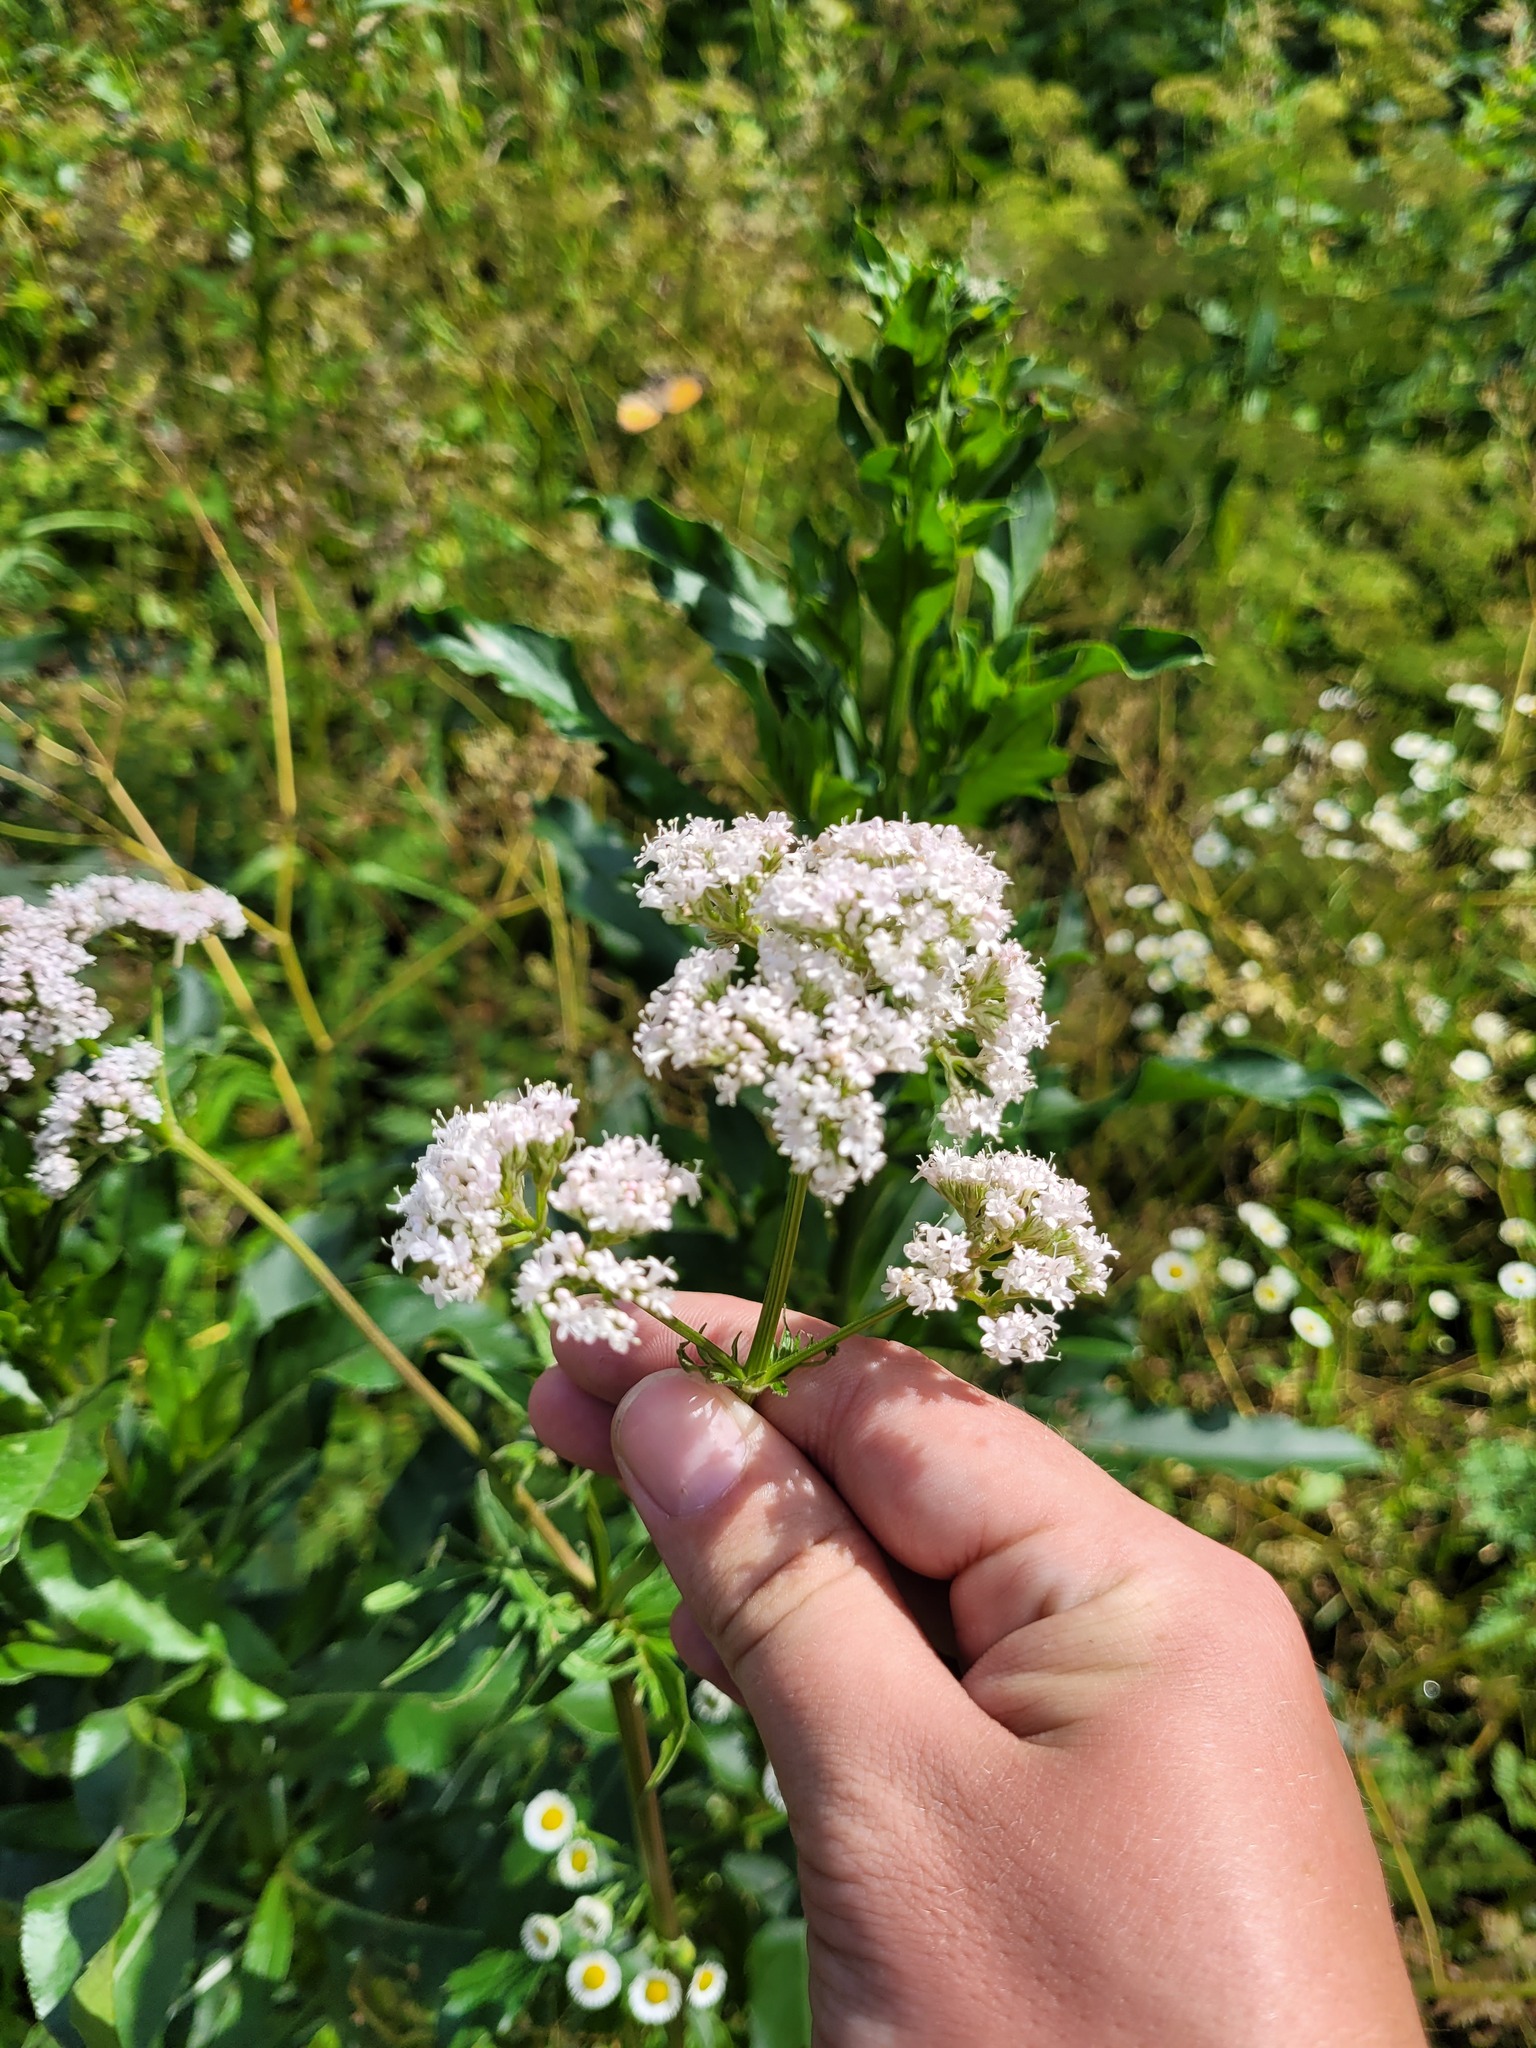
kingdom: Plantae
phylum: Tracheophyta
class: Magnoliopsida
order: Dipsacales
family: Caprifoliaceae
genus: Valeriana
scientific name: Valeriana officinalis
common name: Common valerian
